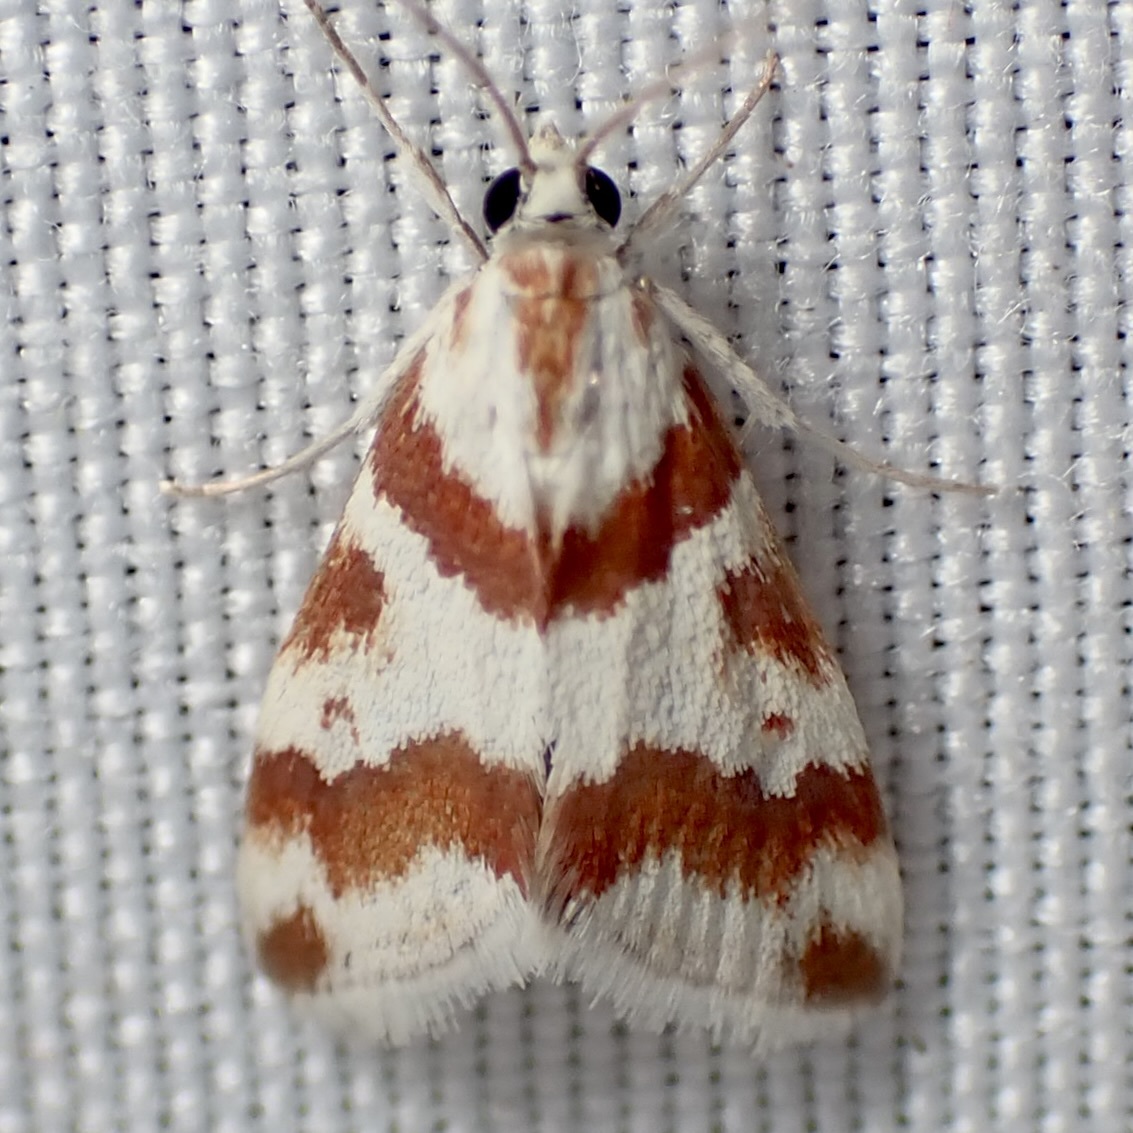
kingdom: Animalia
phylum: Arthropoda
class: Insecta
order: Lepidoptera
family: Crambidae
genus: Noctuelia
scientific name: Noctuelia Mimoschinia rufofascialis
